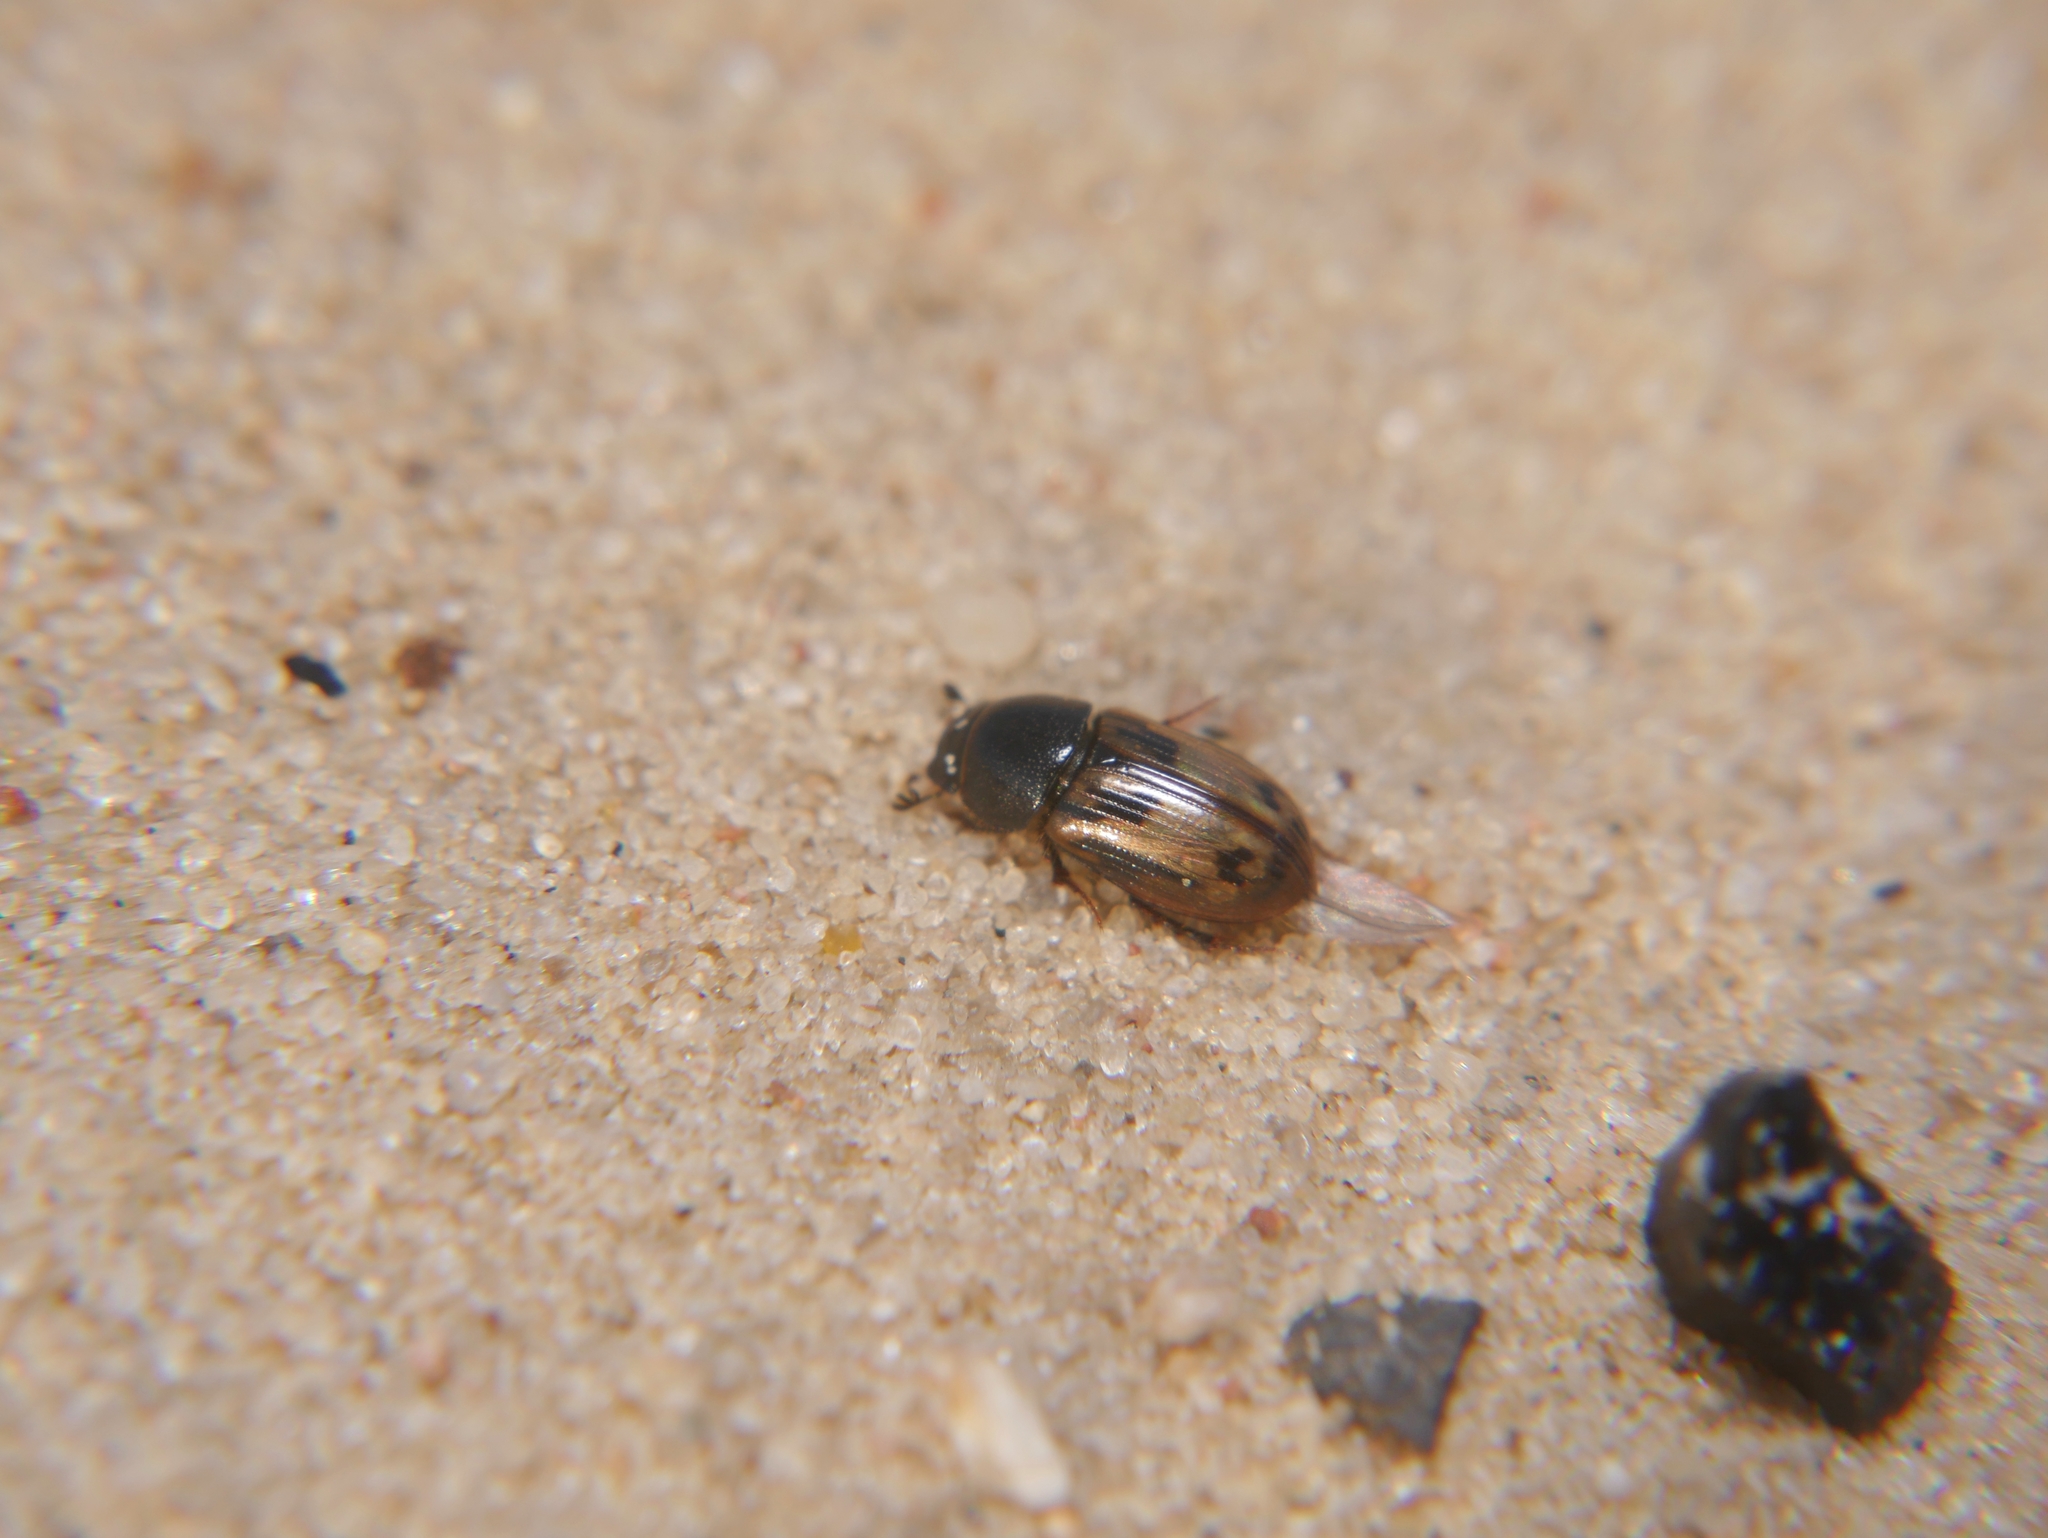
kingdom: Animalia
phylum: Arthropoda
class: Insecta
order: Coleoptera
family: Scarabaeidae
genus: Chilothorax
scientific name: Chilothorax distinctus
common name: Maculated dung beetle
